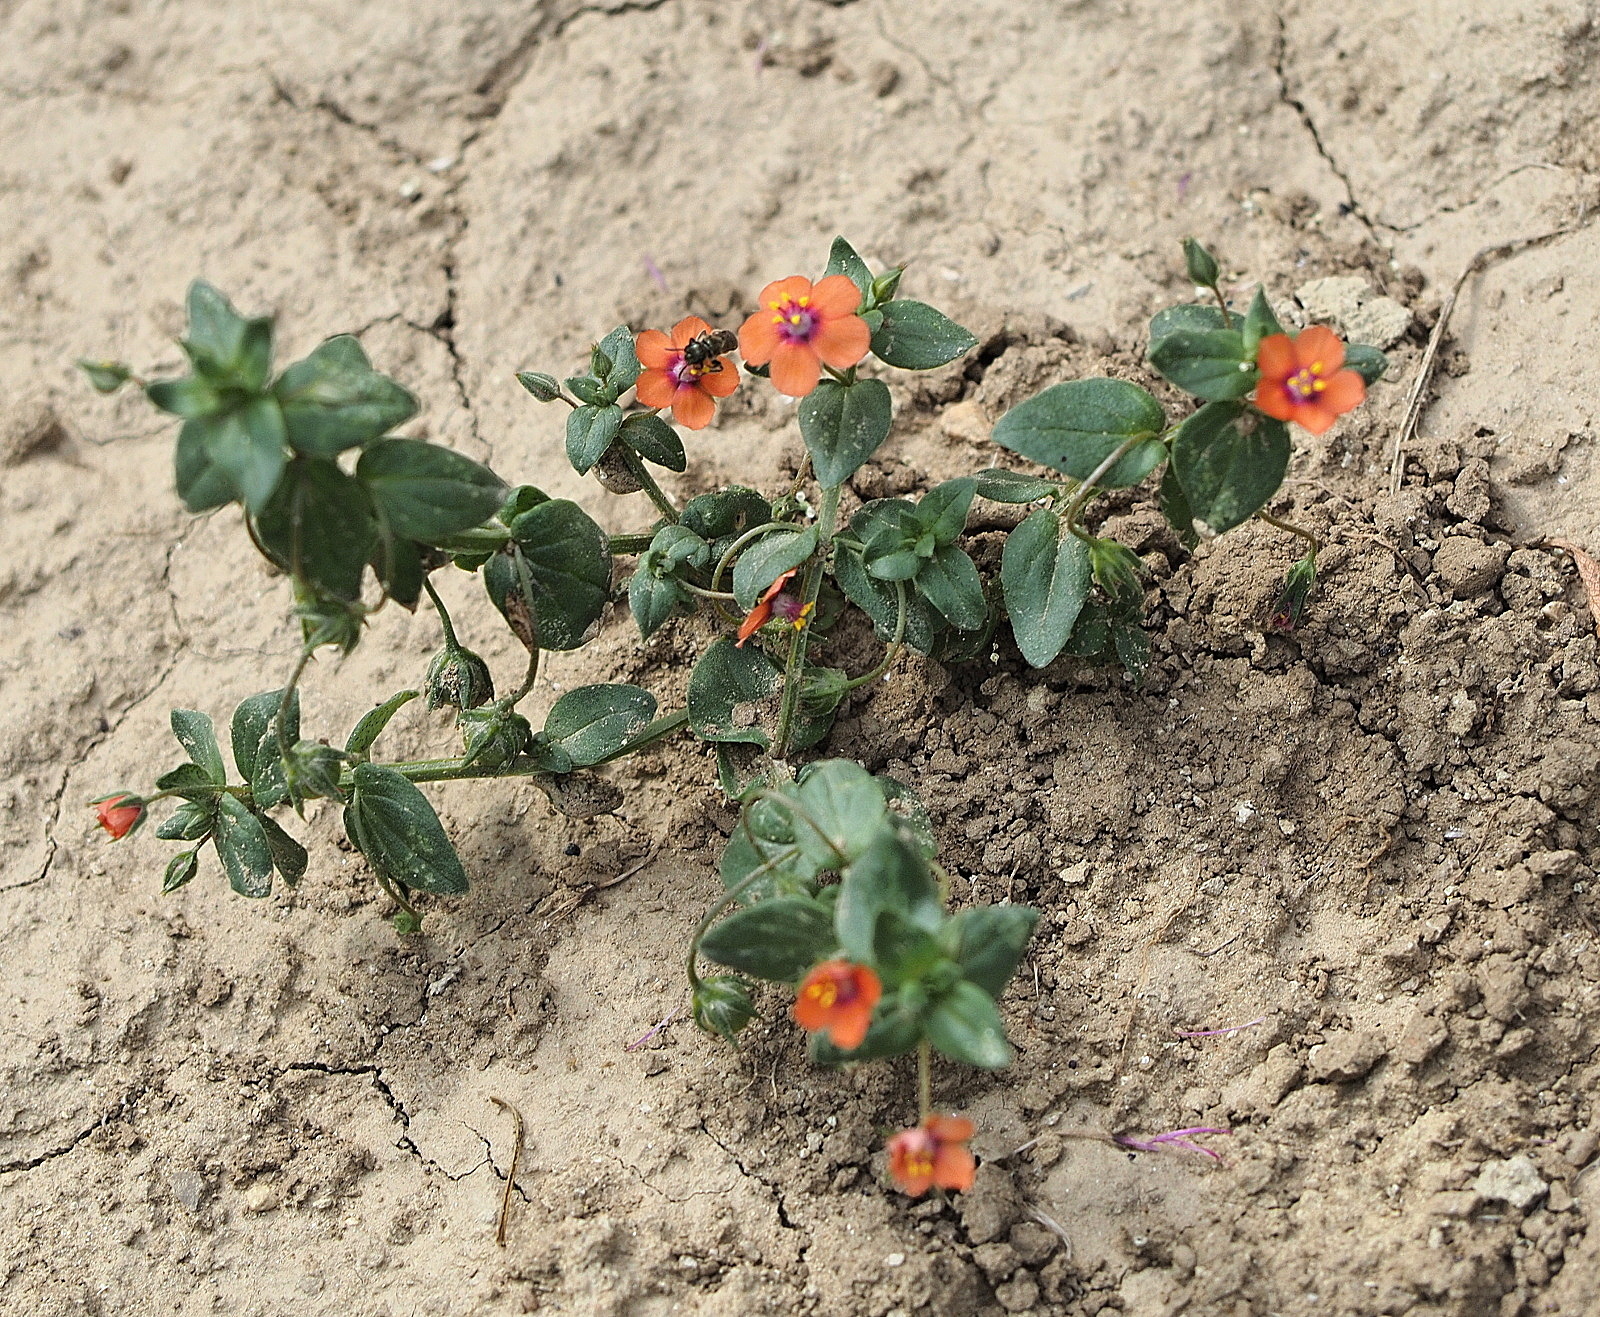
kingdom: Plantae
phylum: Tracheophyta
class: Magnoliopsida
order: Ericales
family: Primulaceae
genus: Lysimachia
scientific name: Lysimachia arvensis
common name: Scarlet pimpernel
